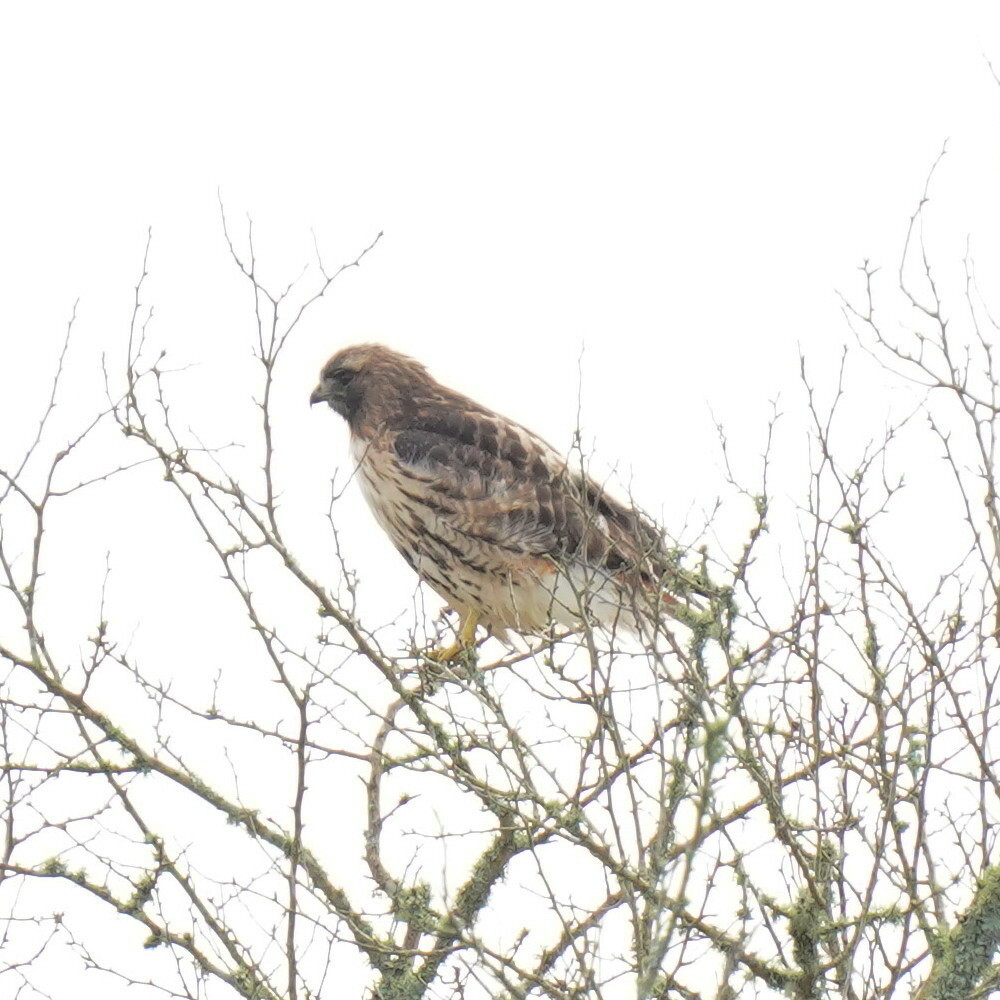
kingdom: Animalia
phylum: Chordata
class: Aves
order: Accipitriformes
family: Accipitridae
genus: Buteo
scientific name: Buteo jamaicensis
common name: Red-tailed hawk
